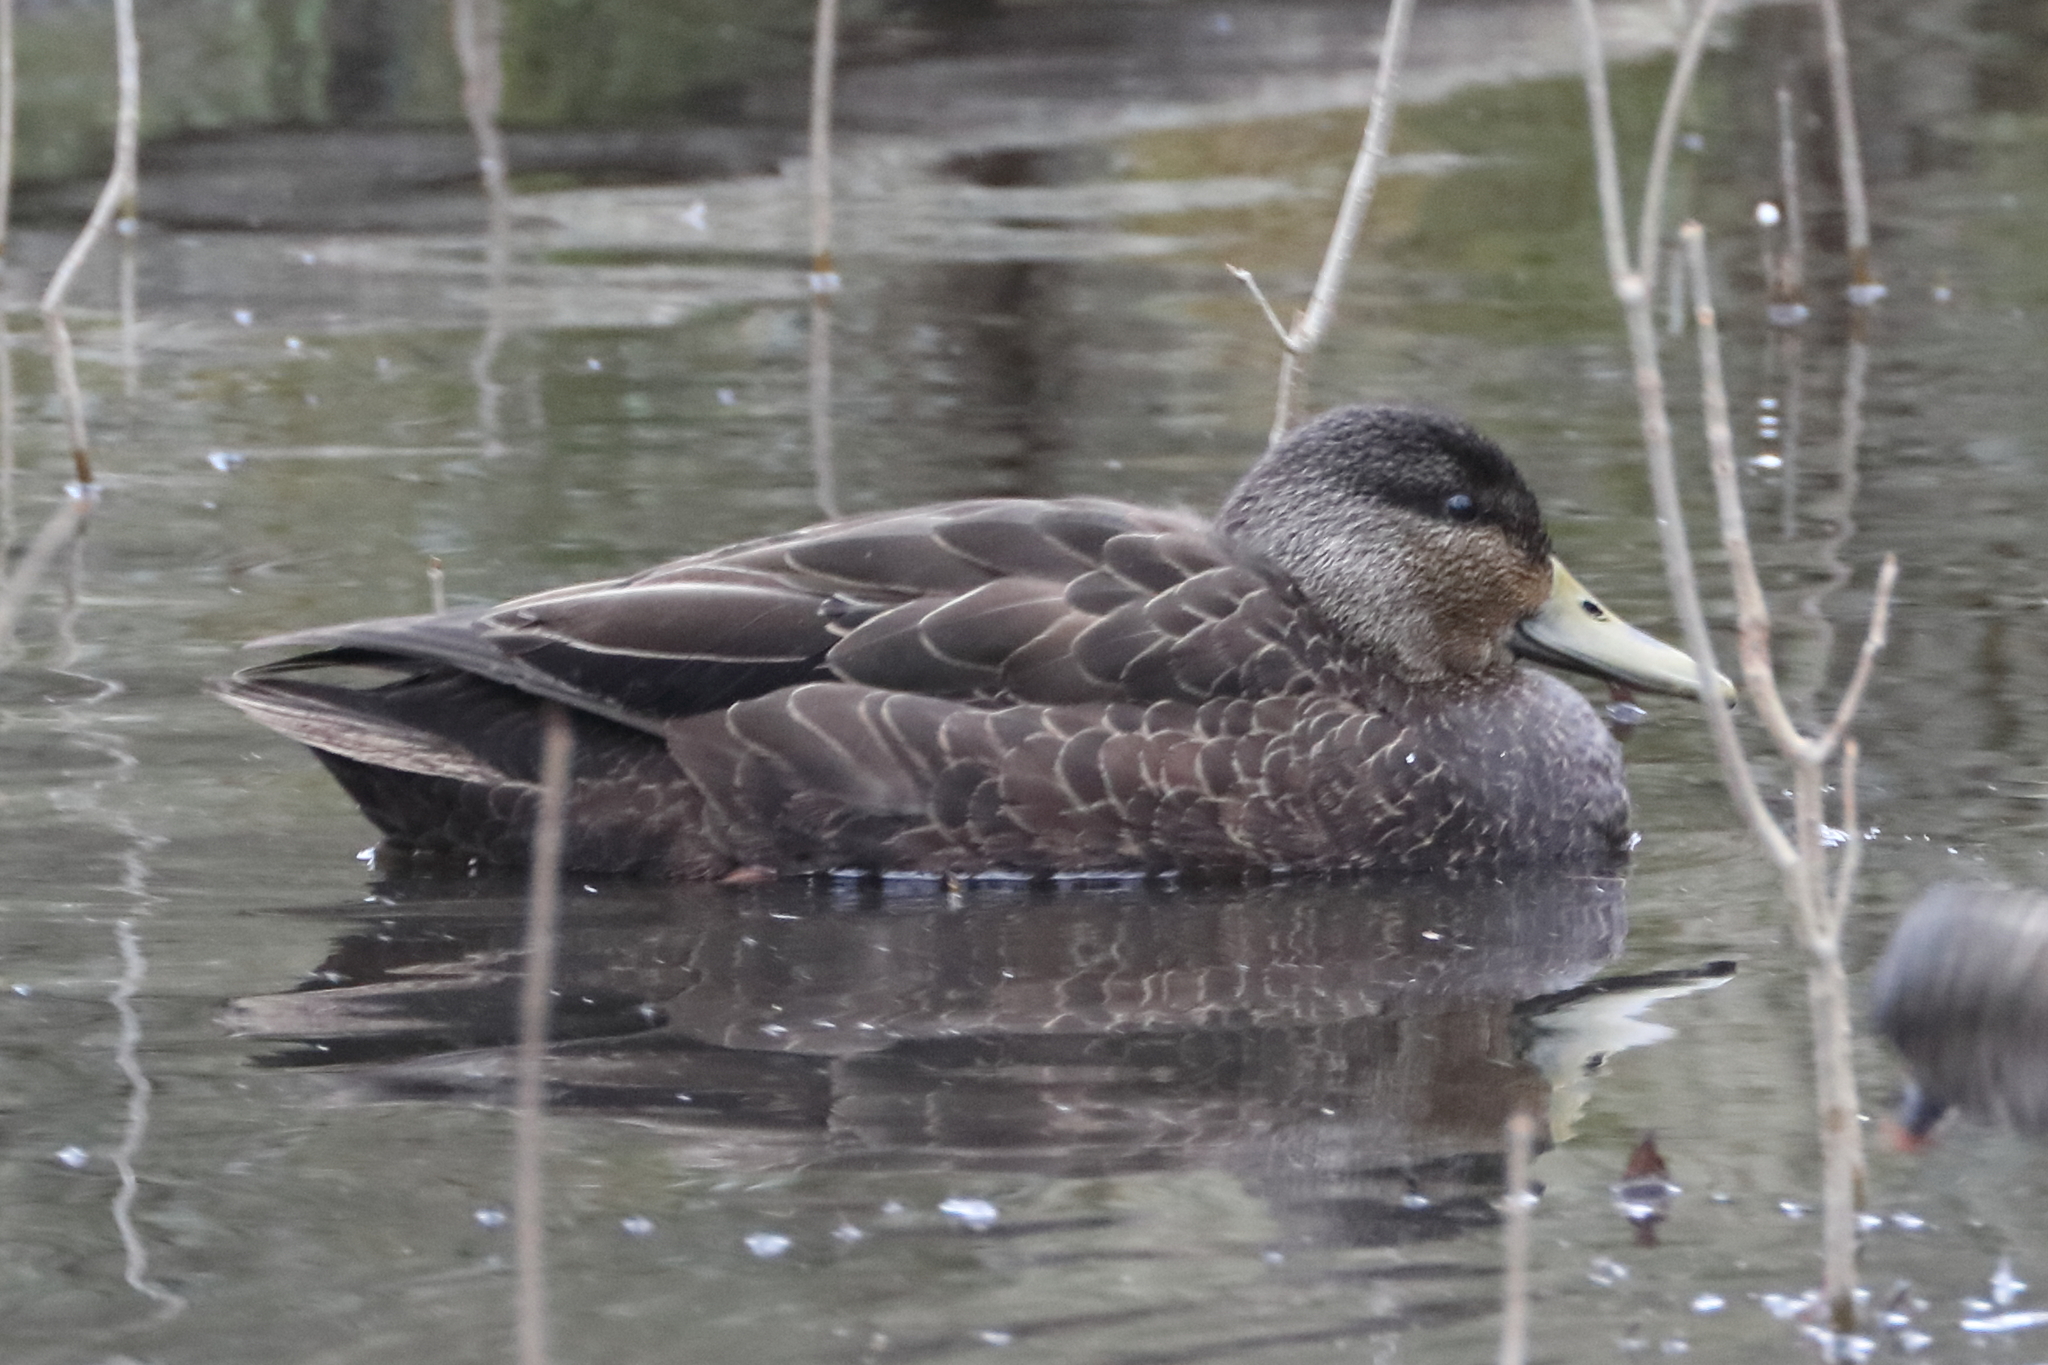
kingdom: Animalia
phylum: Chordata
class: Aves
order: Anseriformes
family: Anatidae
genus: Anas
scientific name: Anas rubripes
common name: American black duck
